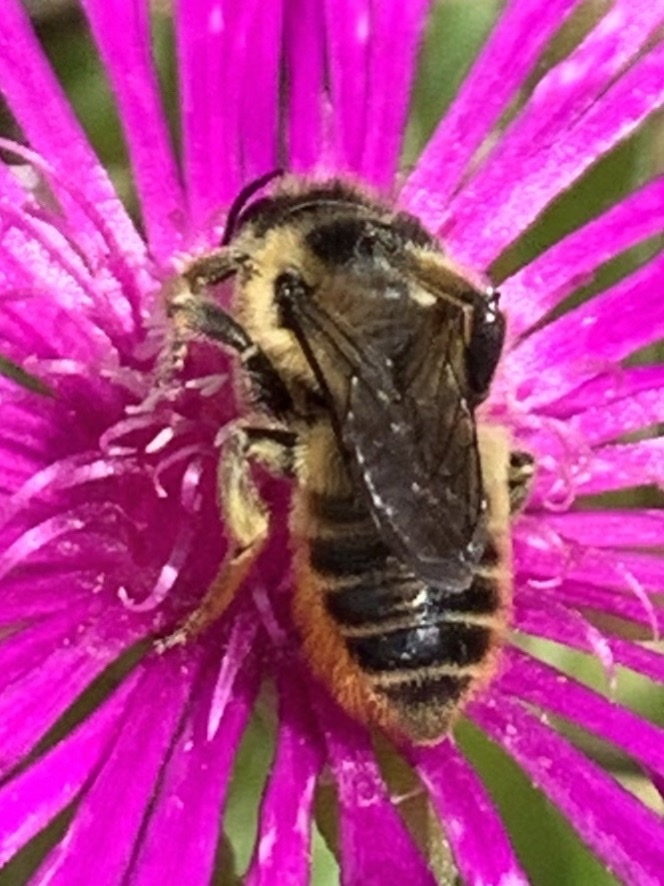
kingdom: Animalia
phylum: Arthropoda
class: Insecta
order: Hymenoptera
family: Megachilidae
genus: Megachile
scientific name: Megachile perihirta
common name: Western leafcutter
